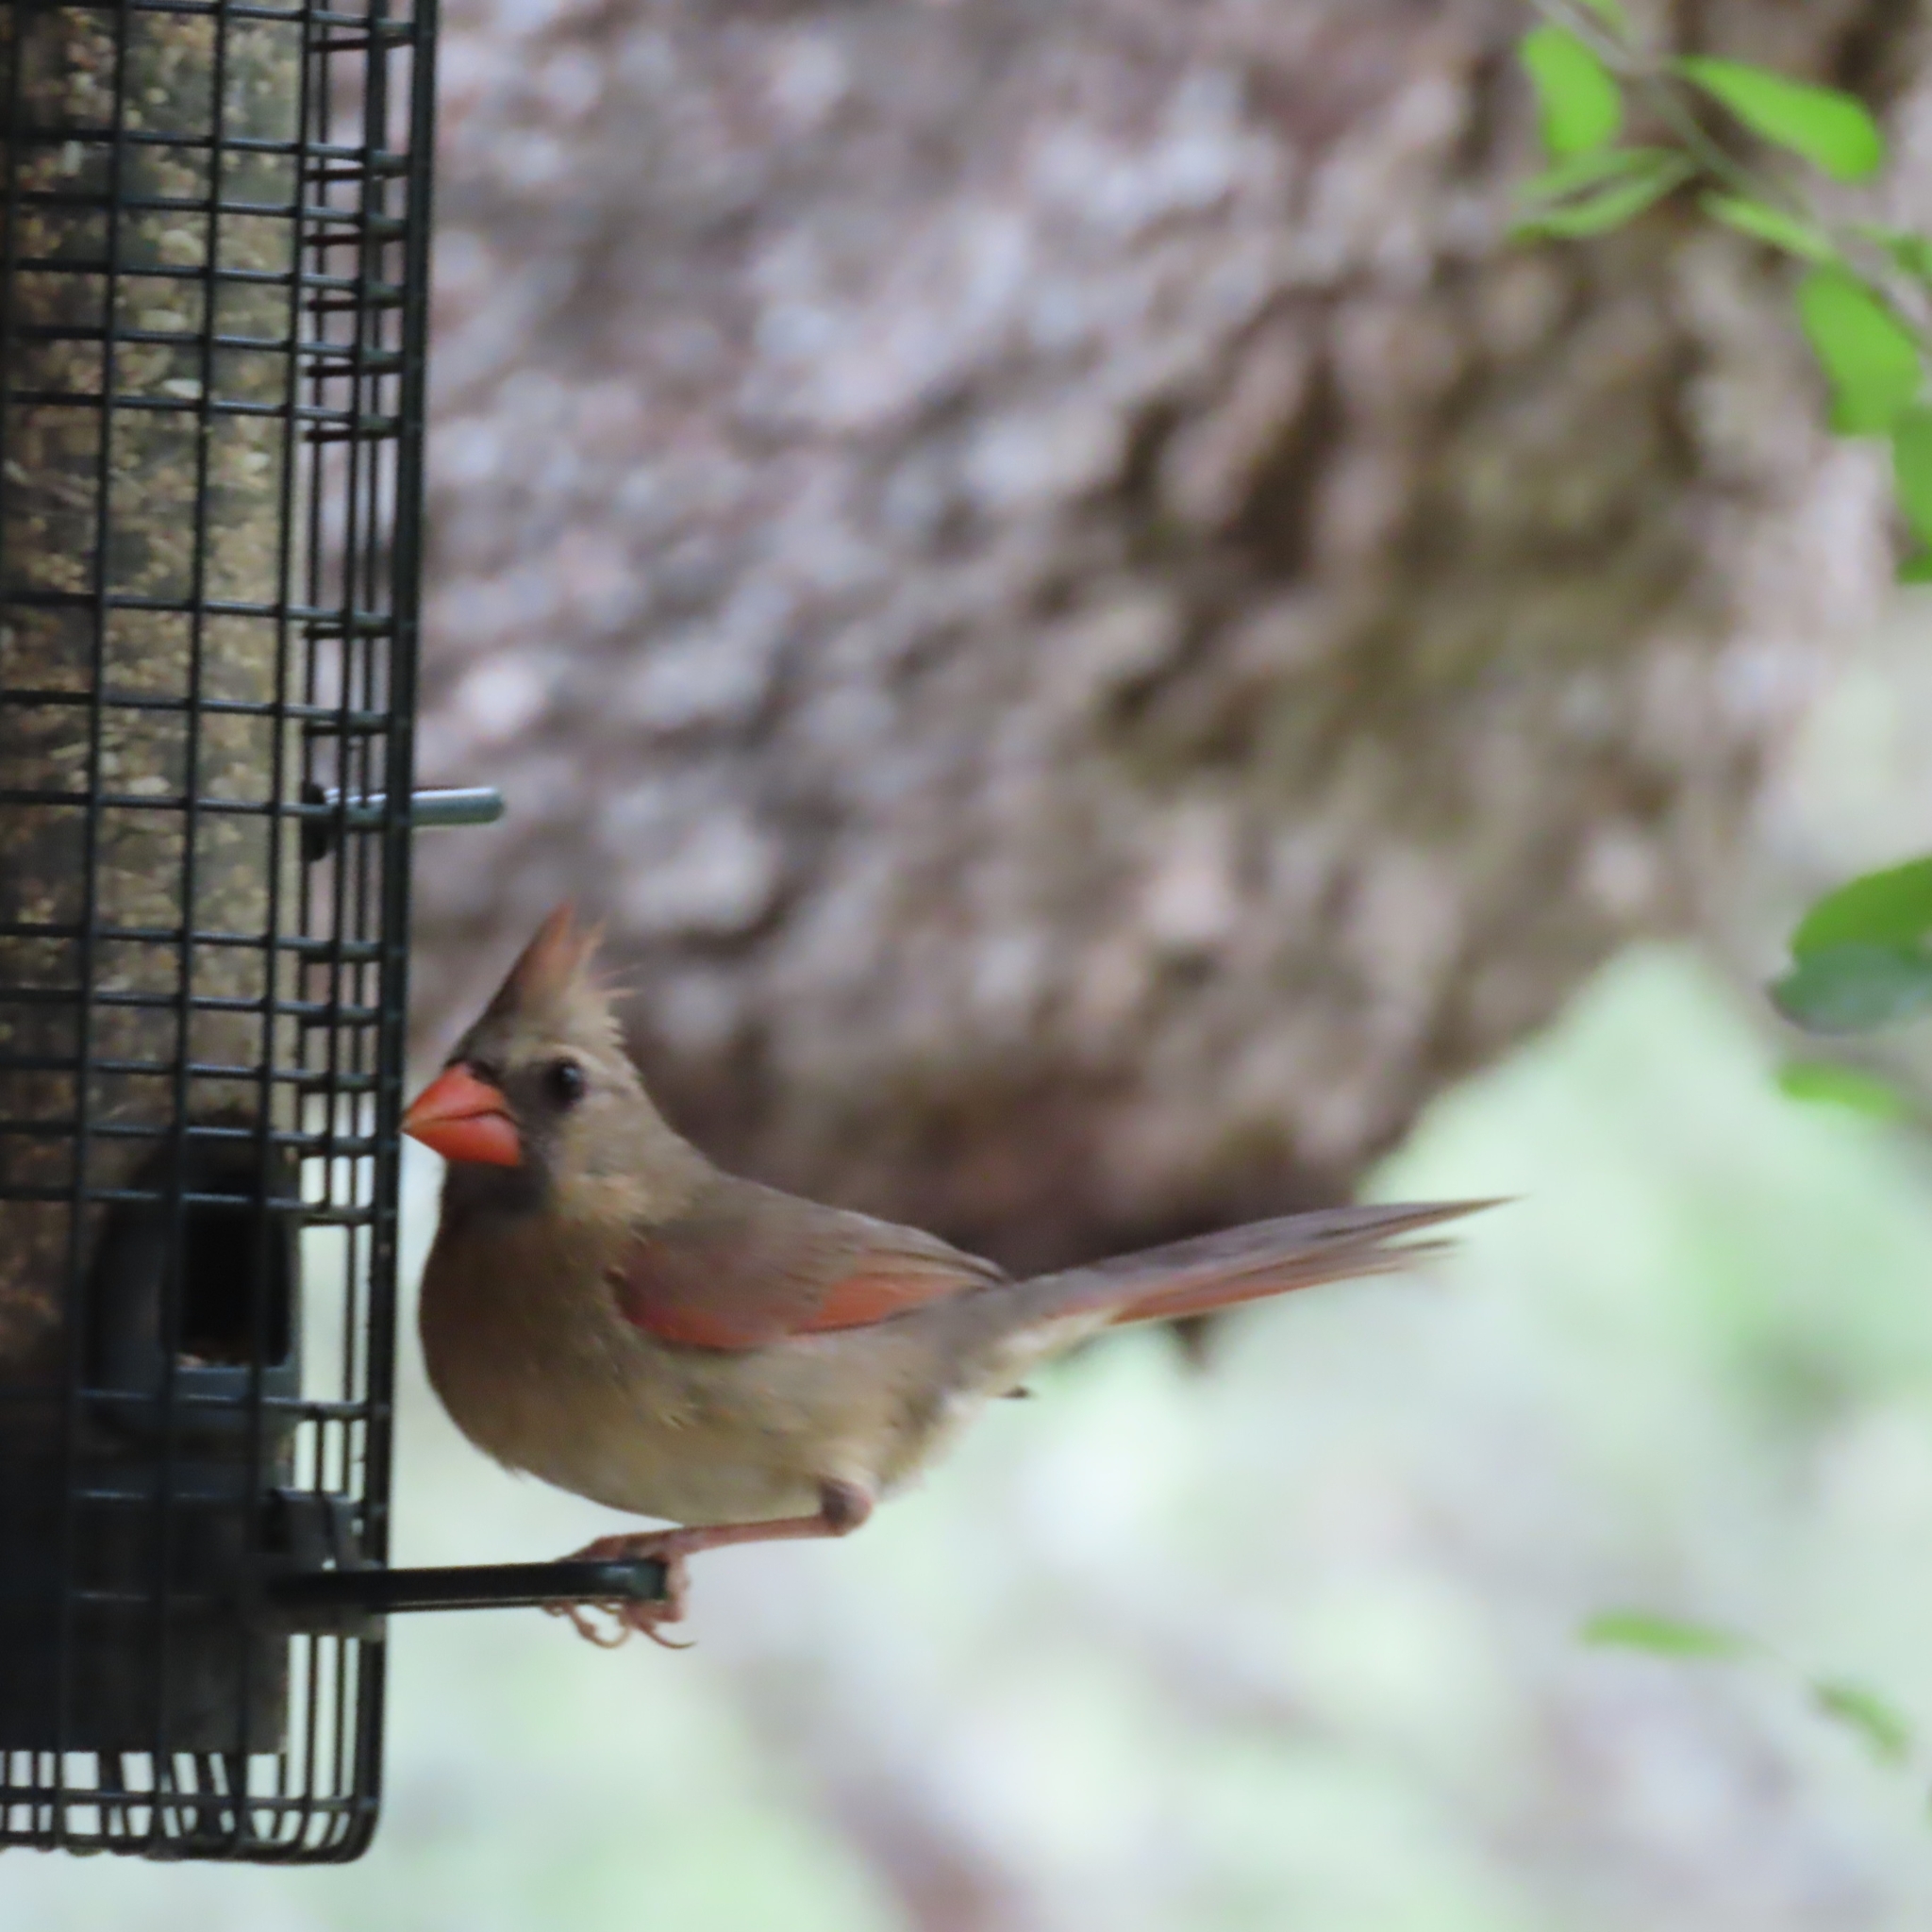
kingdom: Animalia
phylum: Chordata
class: Aves
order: Passeriformes
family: Cardinalidae
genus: Cardinalis
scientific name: Cardinalis cardinalis
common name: Northern cardinal
